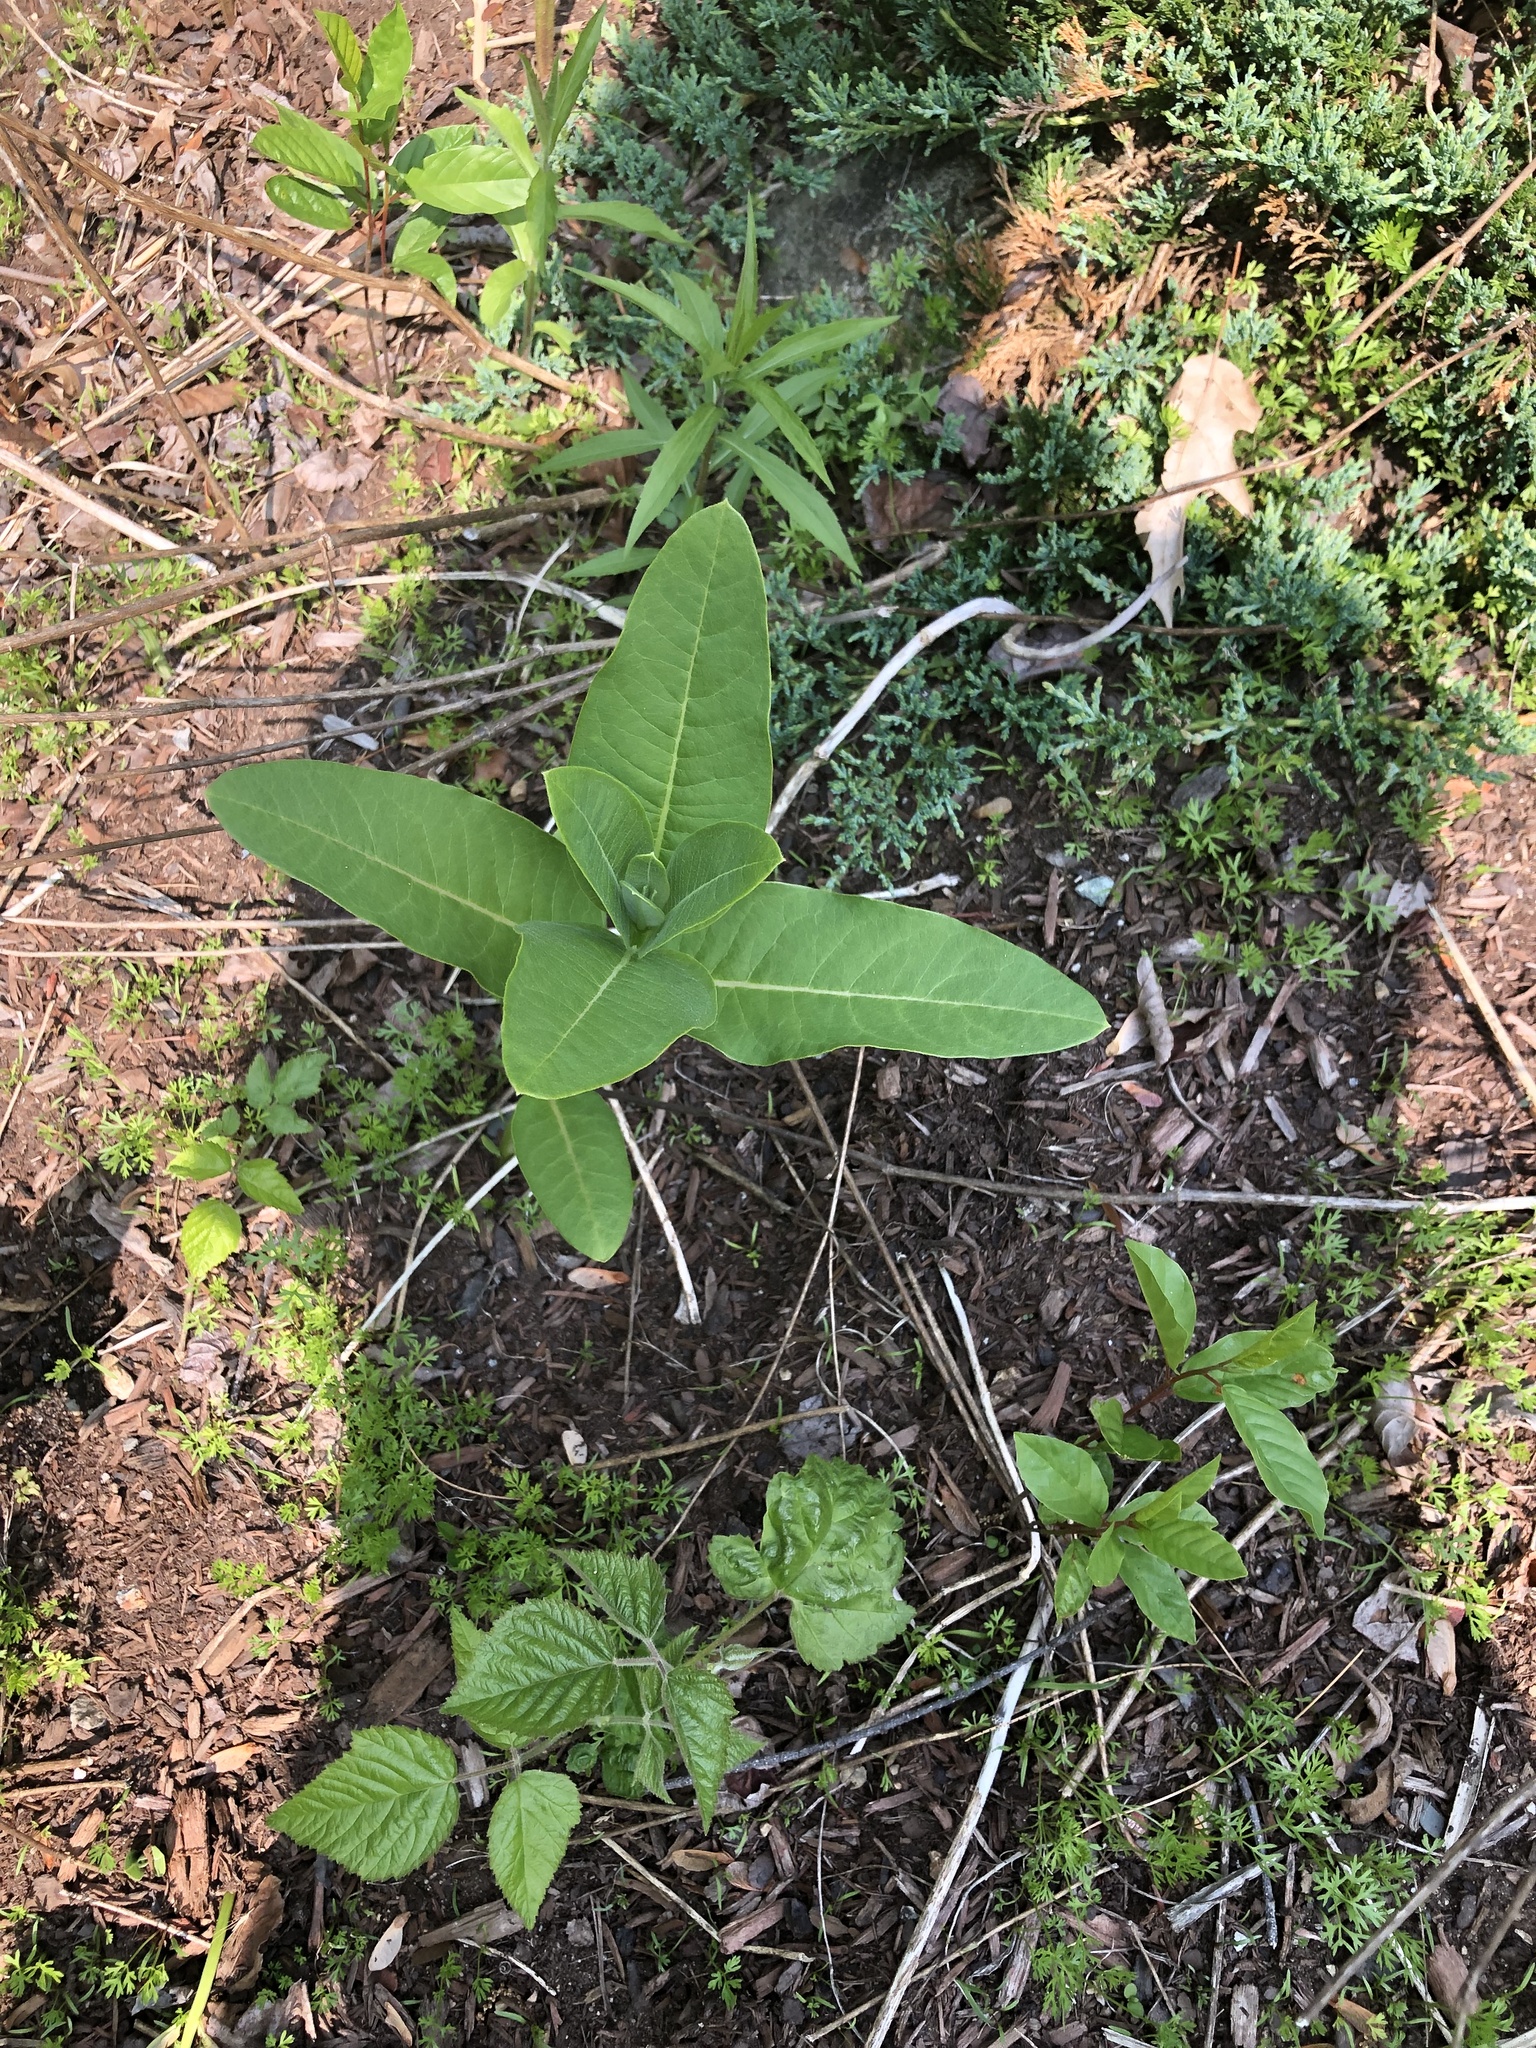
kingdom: Plantae
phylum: Tracheophyta
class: Magnoliopsida
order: Gentianales
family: Apocynaceae
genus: Asclepias
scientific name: Asclepias syriaca
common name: Common milkweed
